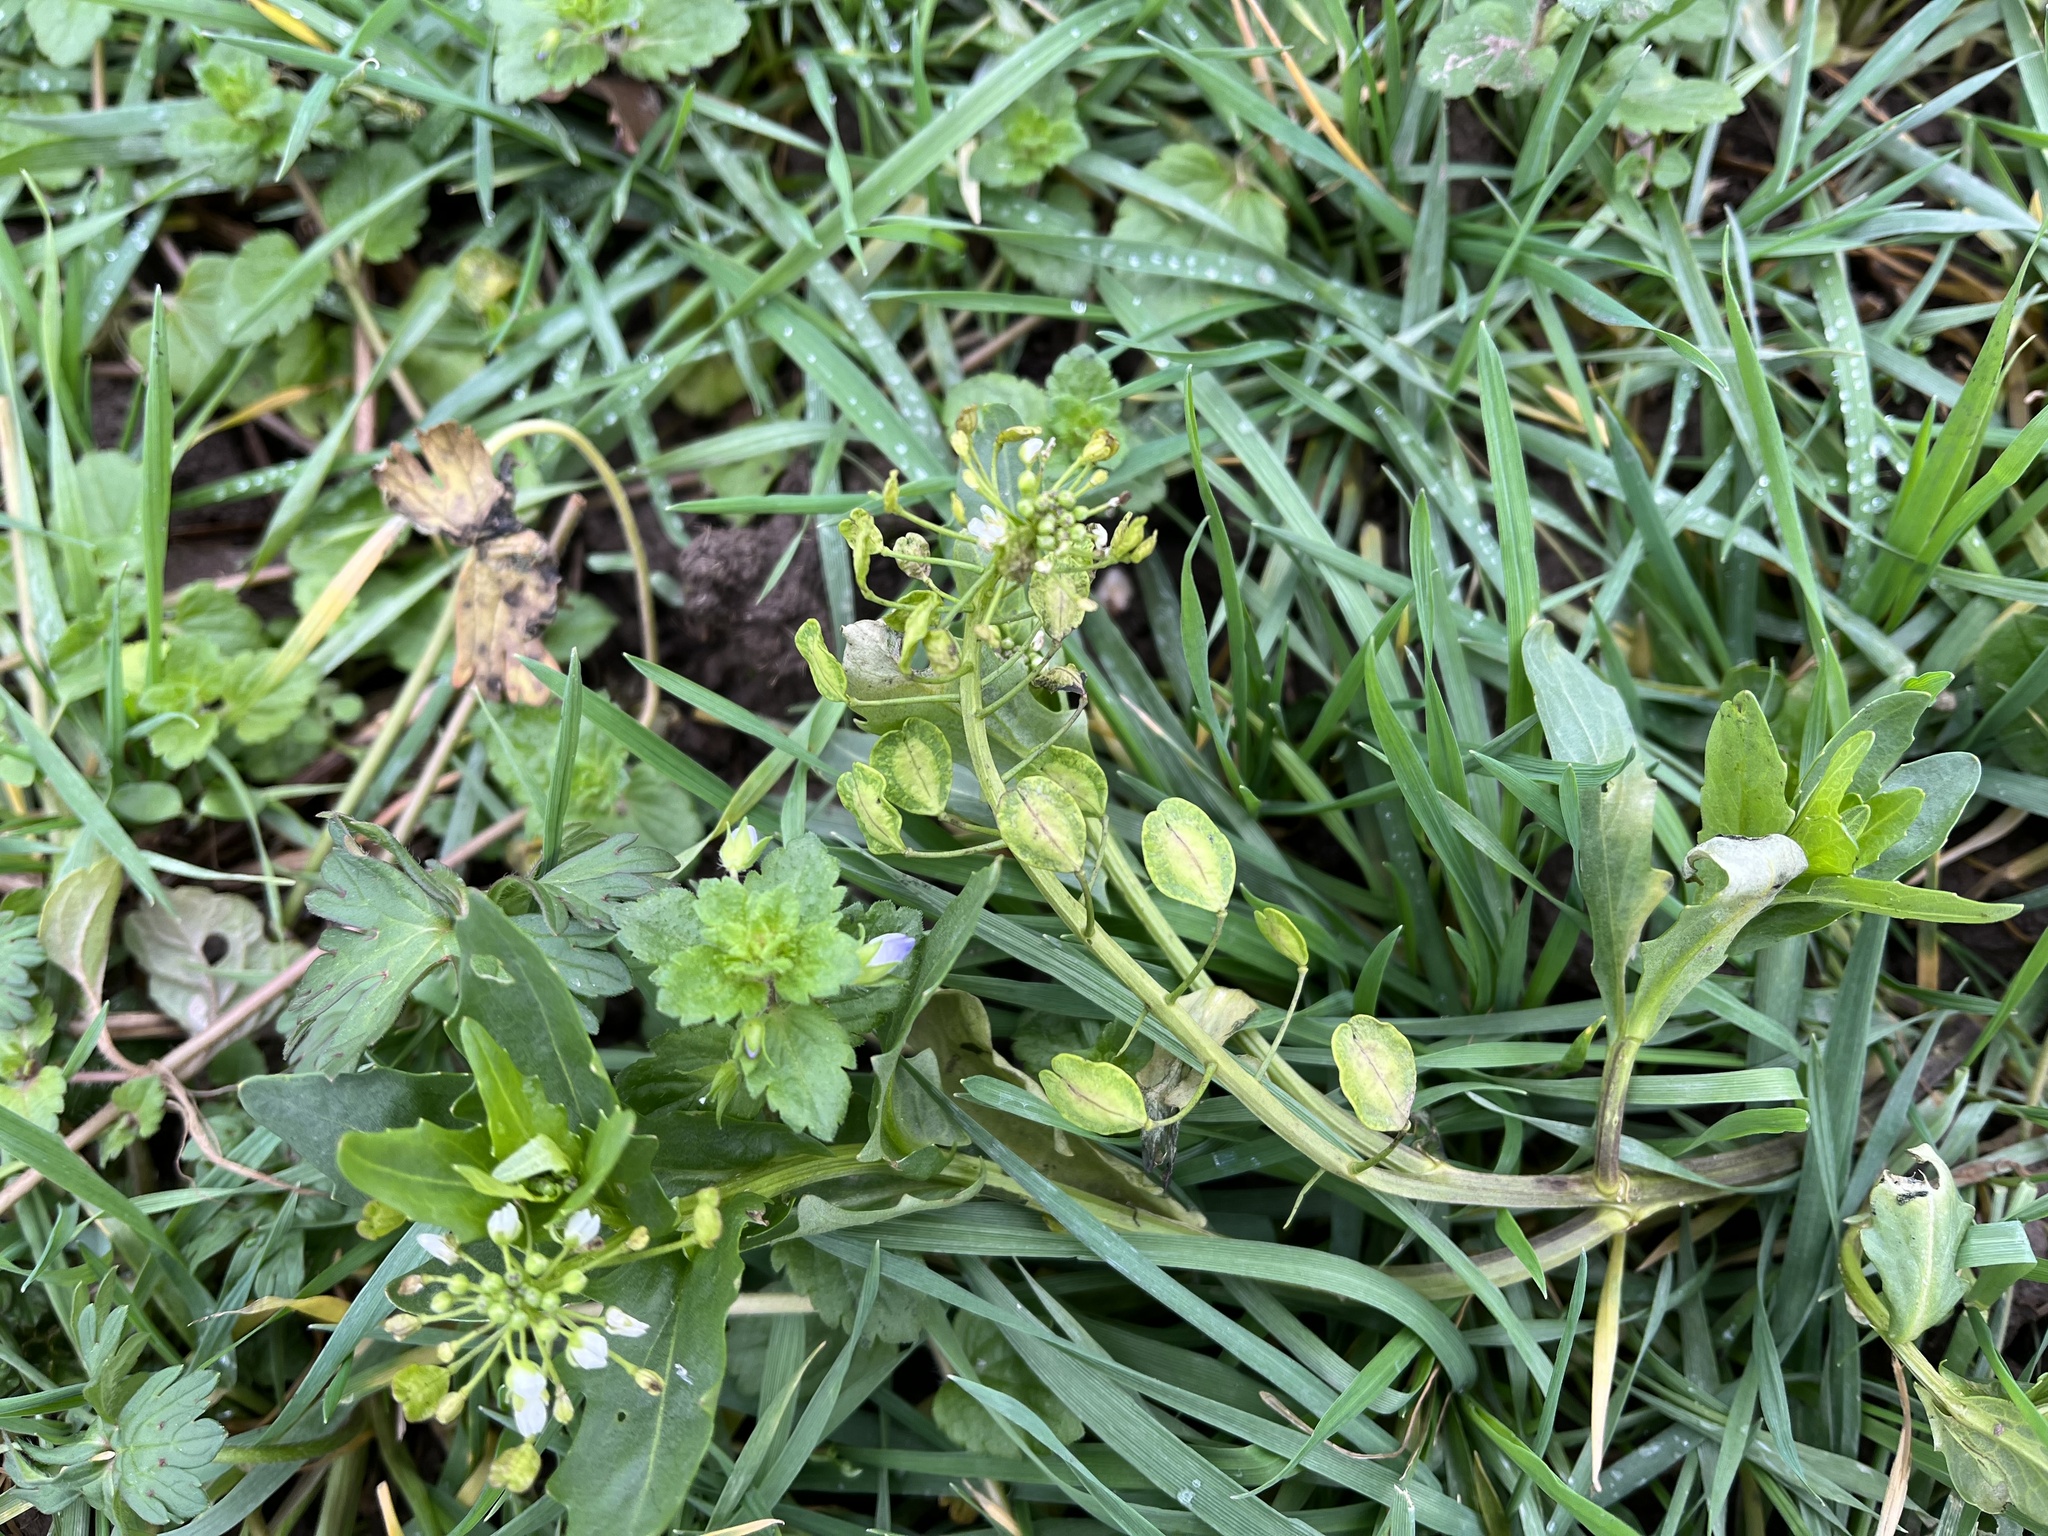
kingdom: Plantae
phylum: Tracheophyta
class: Magnoliopsida
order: Brassicales
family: Brassicaceae
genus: Thlaspi
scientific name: Thlaspi arvense
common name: Field pennycress
